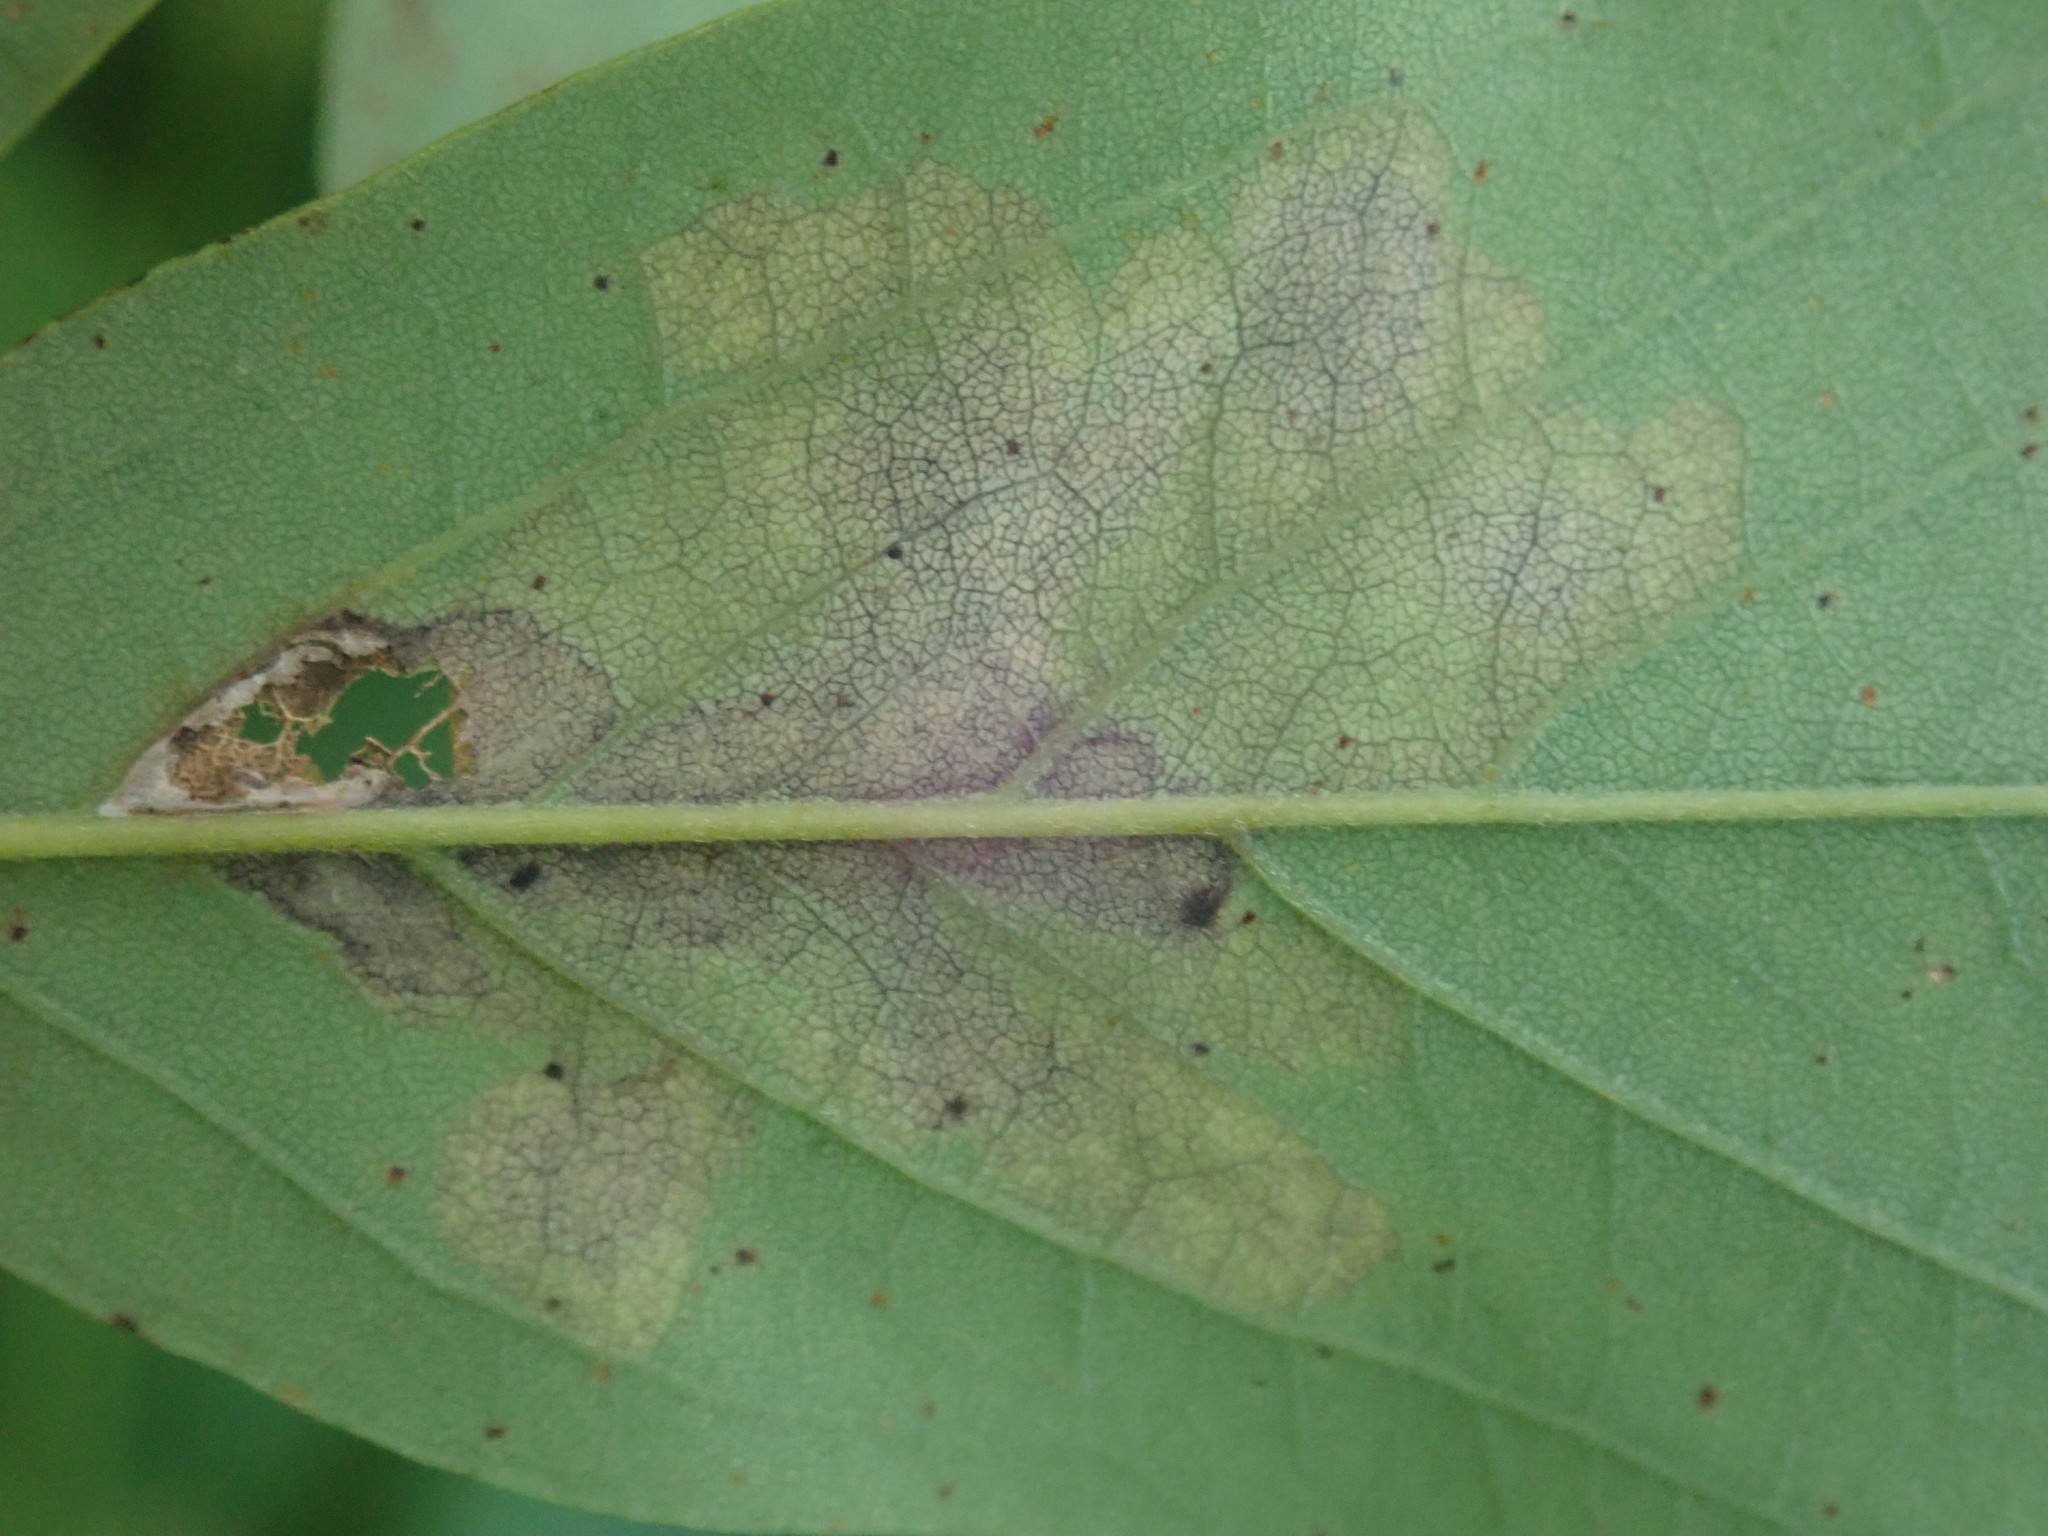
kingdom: Animalia
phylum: Arthropoda
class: Insecta
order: Lepidoptera
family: Gracillariidae
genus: Parectopa
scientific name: Parectopa robiniella
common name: Locust digitate leafminer
